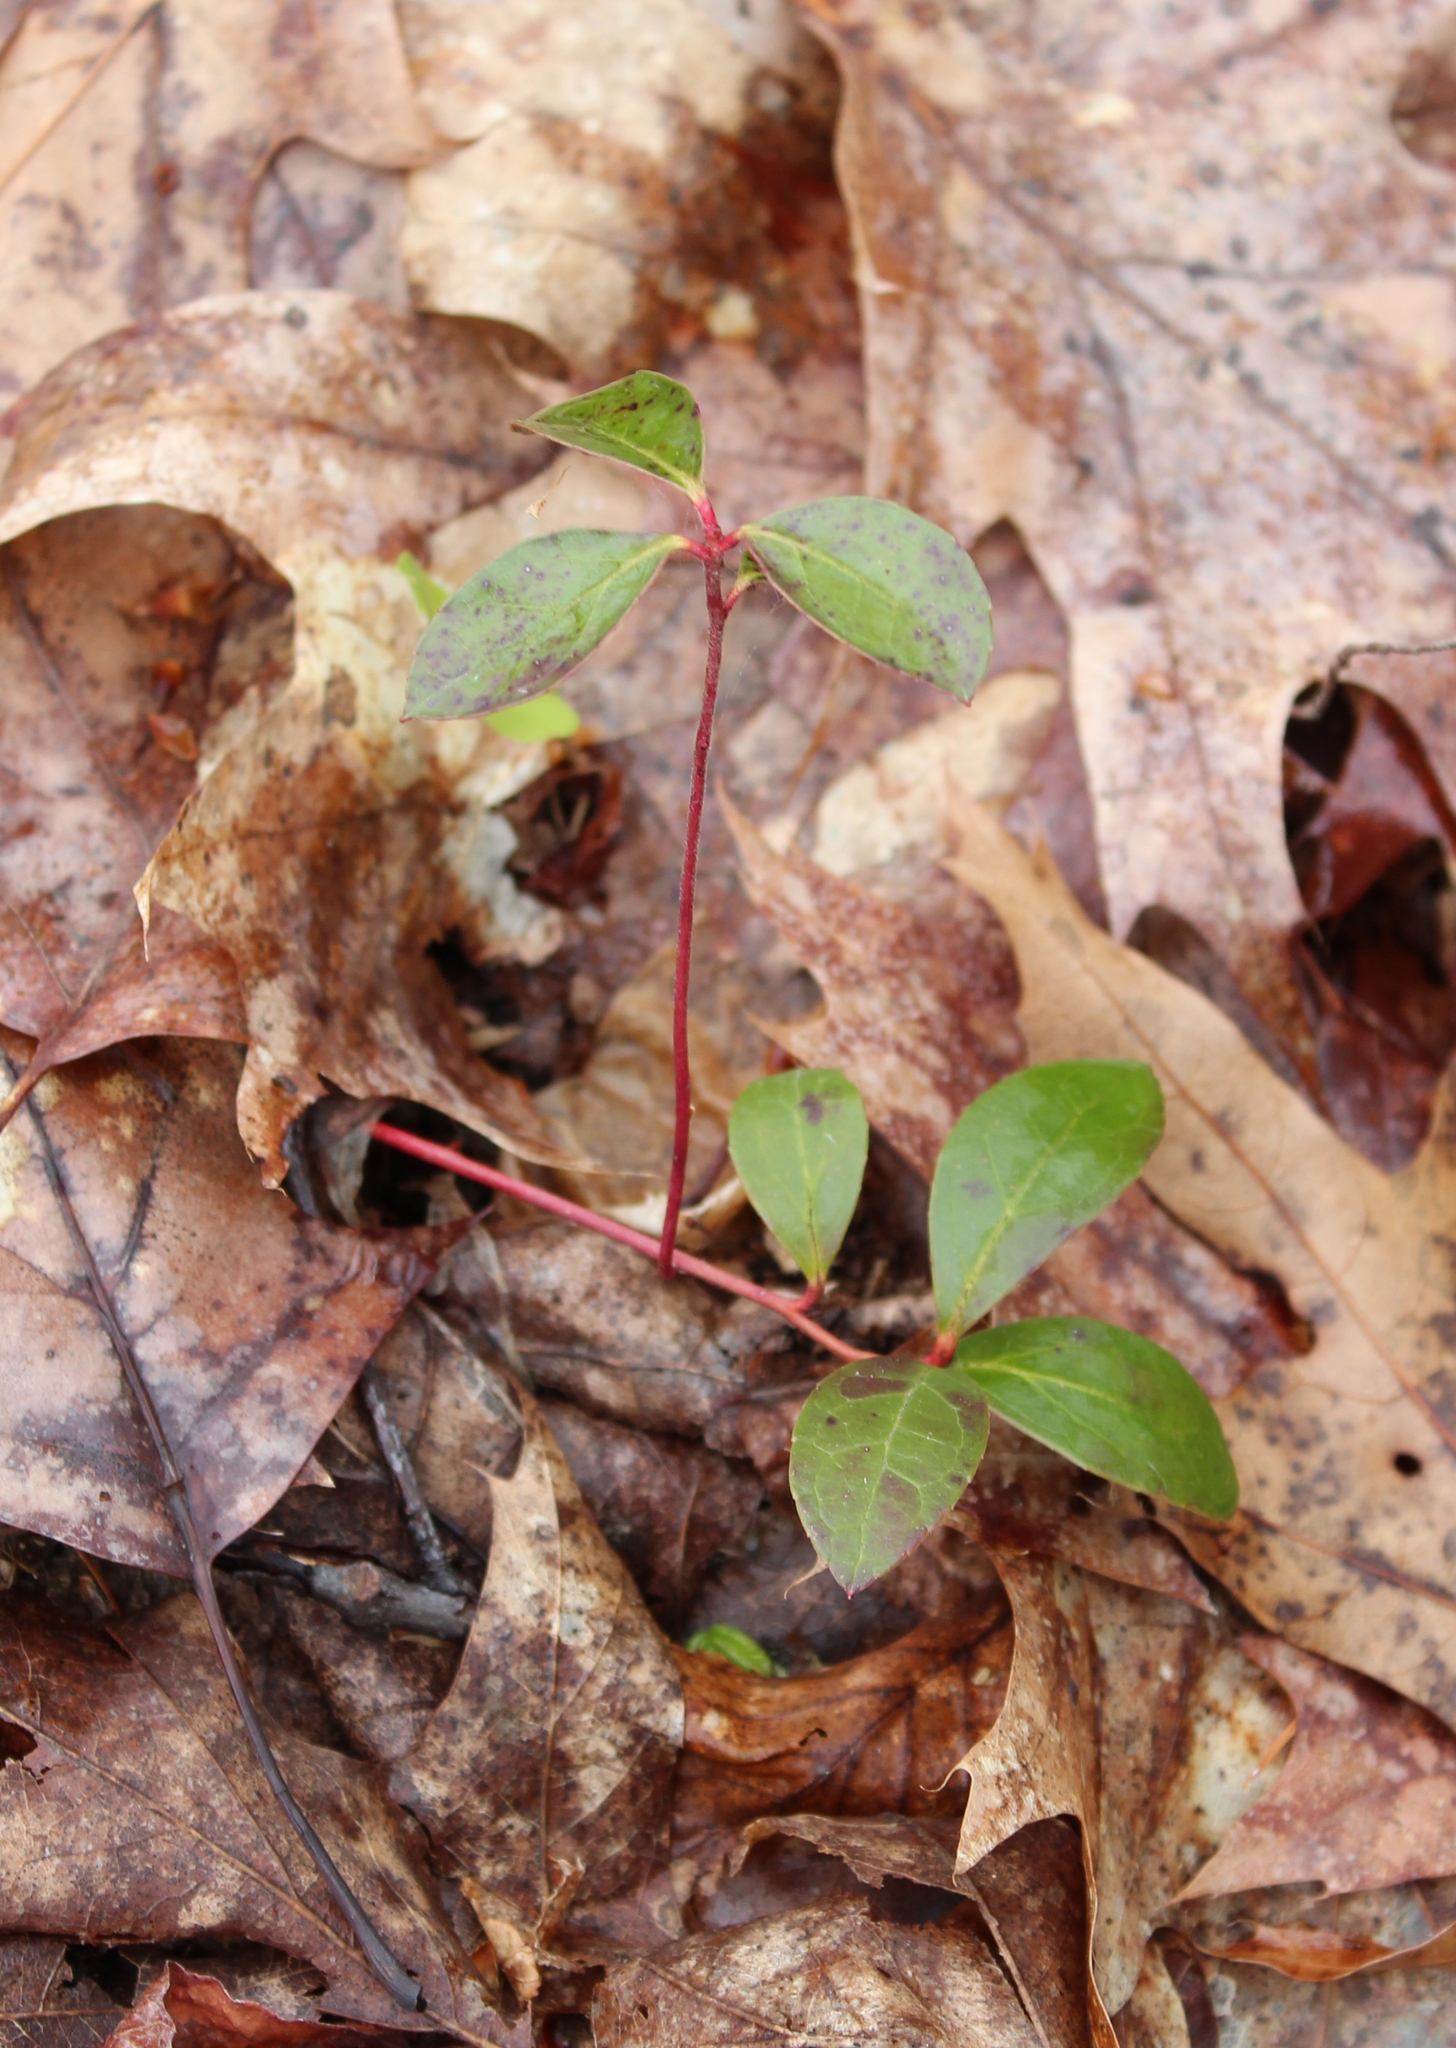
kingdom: Plantae
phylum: Tracheophyta
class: Magnoliopsida
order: Ericales
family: Ericaceae
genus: Gaultheria
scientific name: Gaultheria procumbens
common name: Checkerberry
